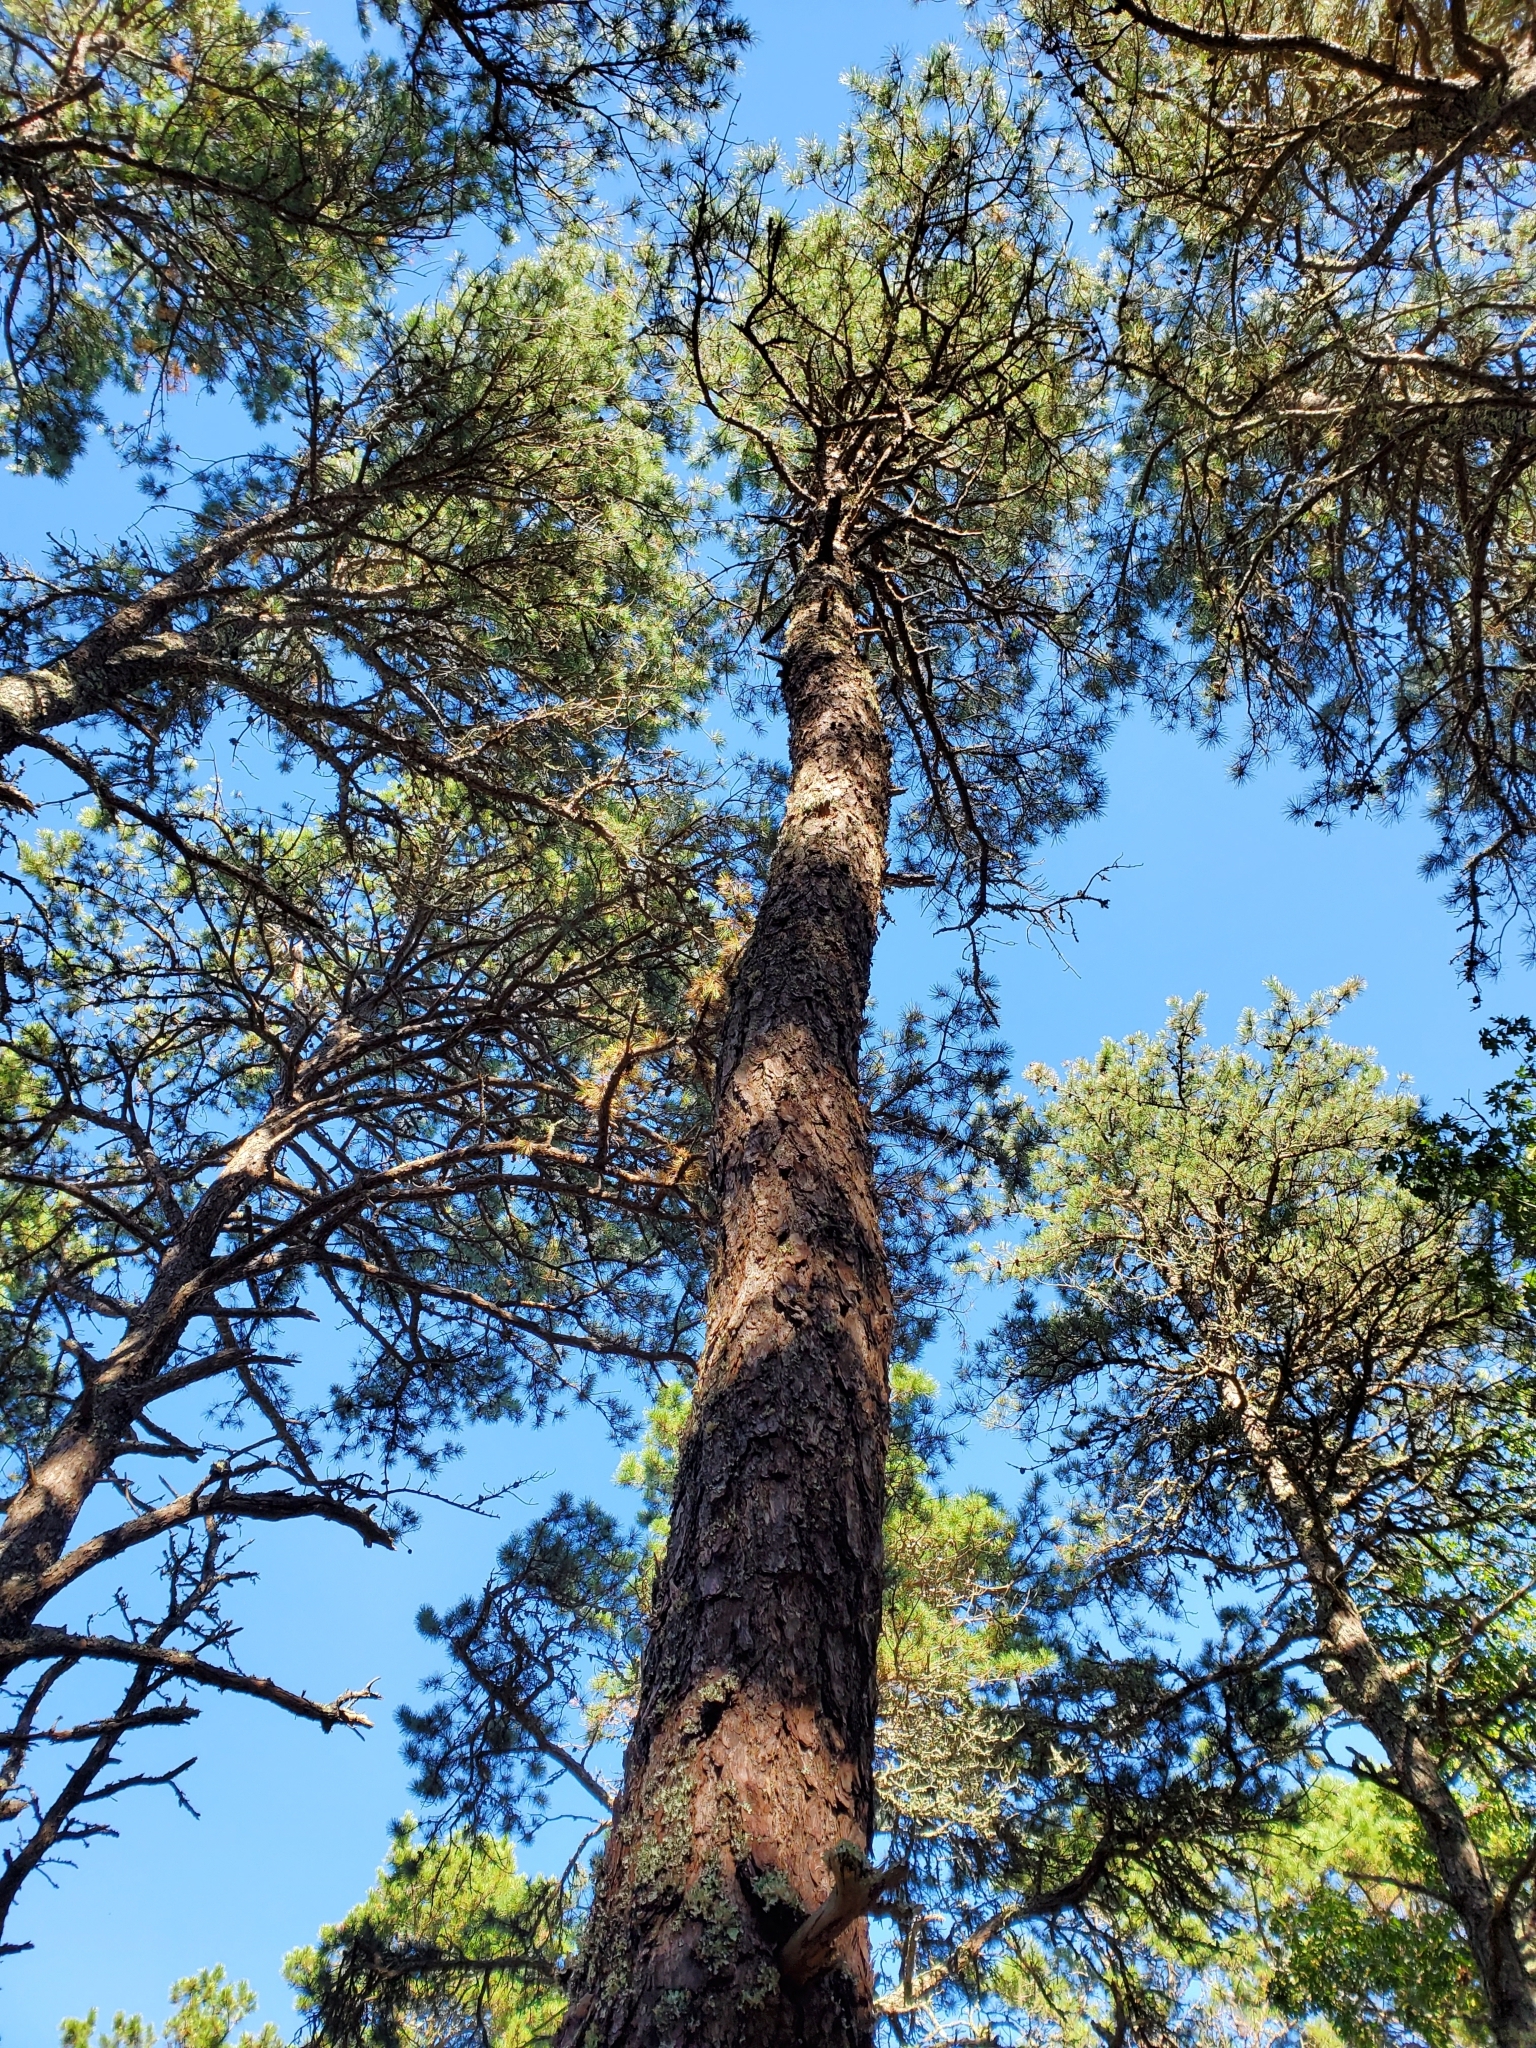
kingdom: Plantae
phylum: Tracheophyta
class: Pinopsida
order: Pinales
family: Pinaceae
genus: Pinus
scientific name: Pinus rigida
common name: Pitch pine
